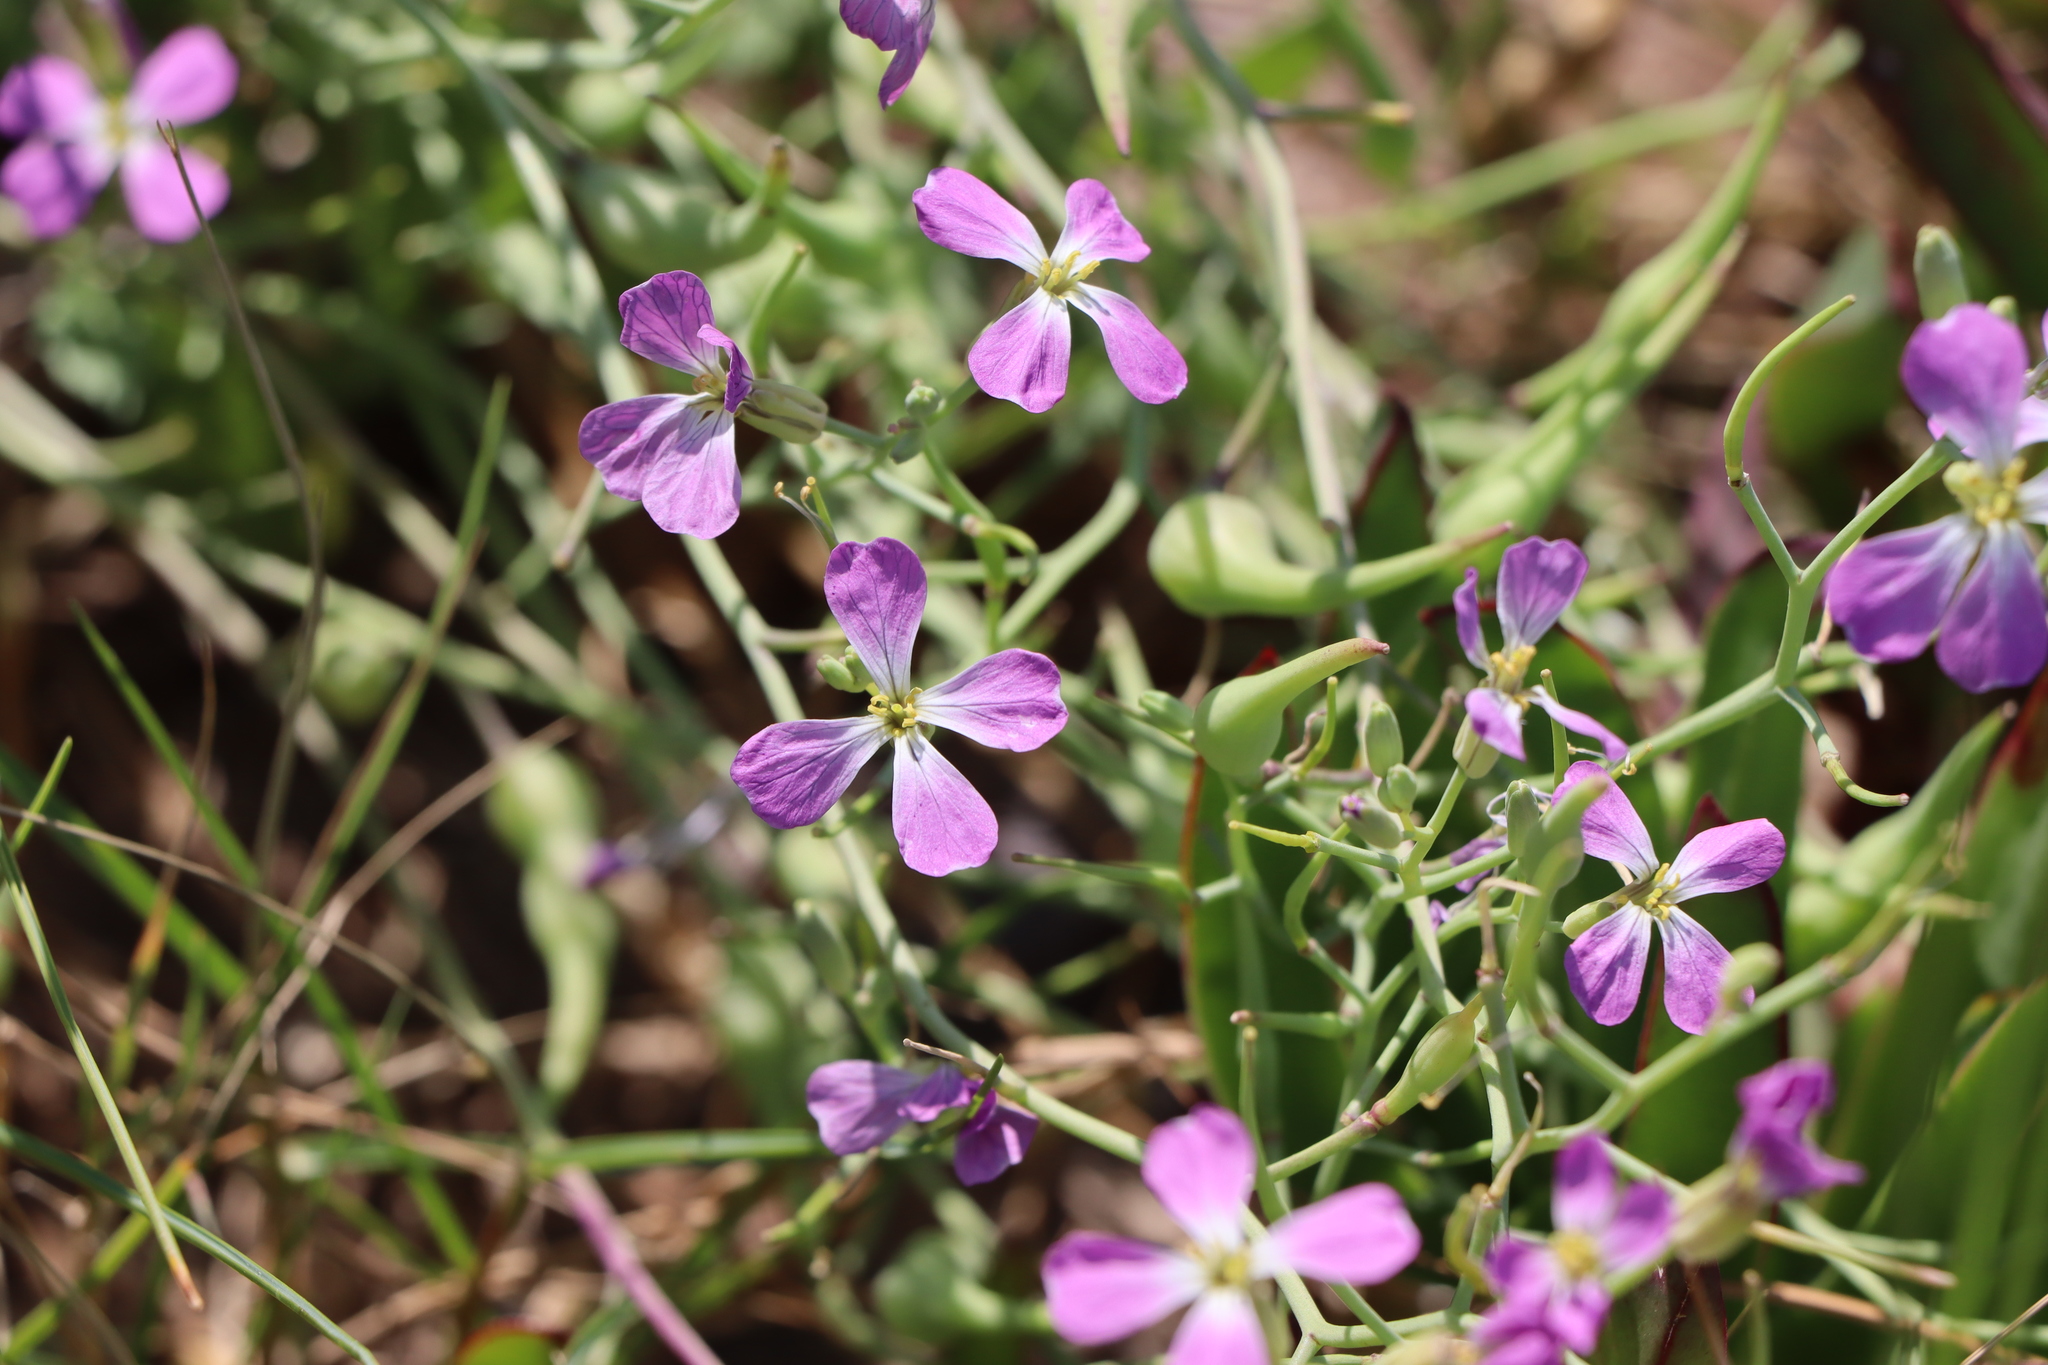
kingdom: Plantae
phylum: Tracheophyta
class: Magnoliopsida
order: Brassicales
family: Brassicaceae
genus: Raphanus
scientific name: Raphanus sativus
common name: Cultivated radish
